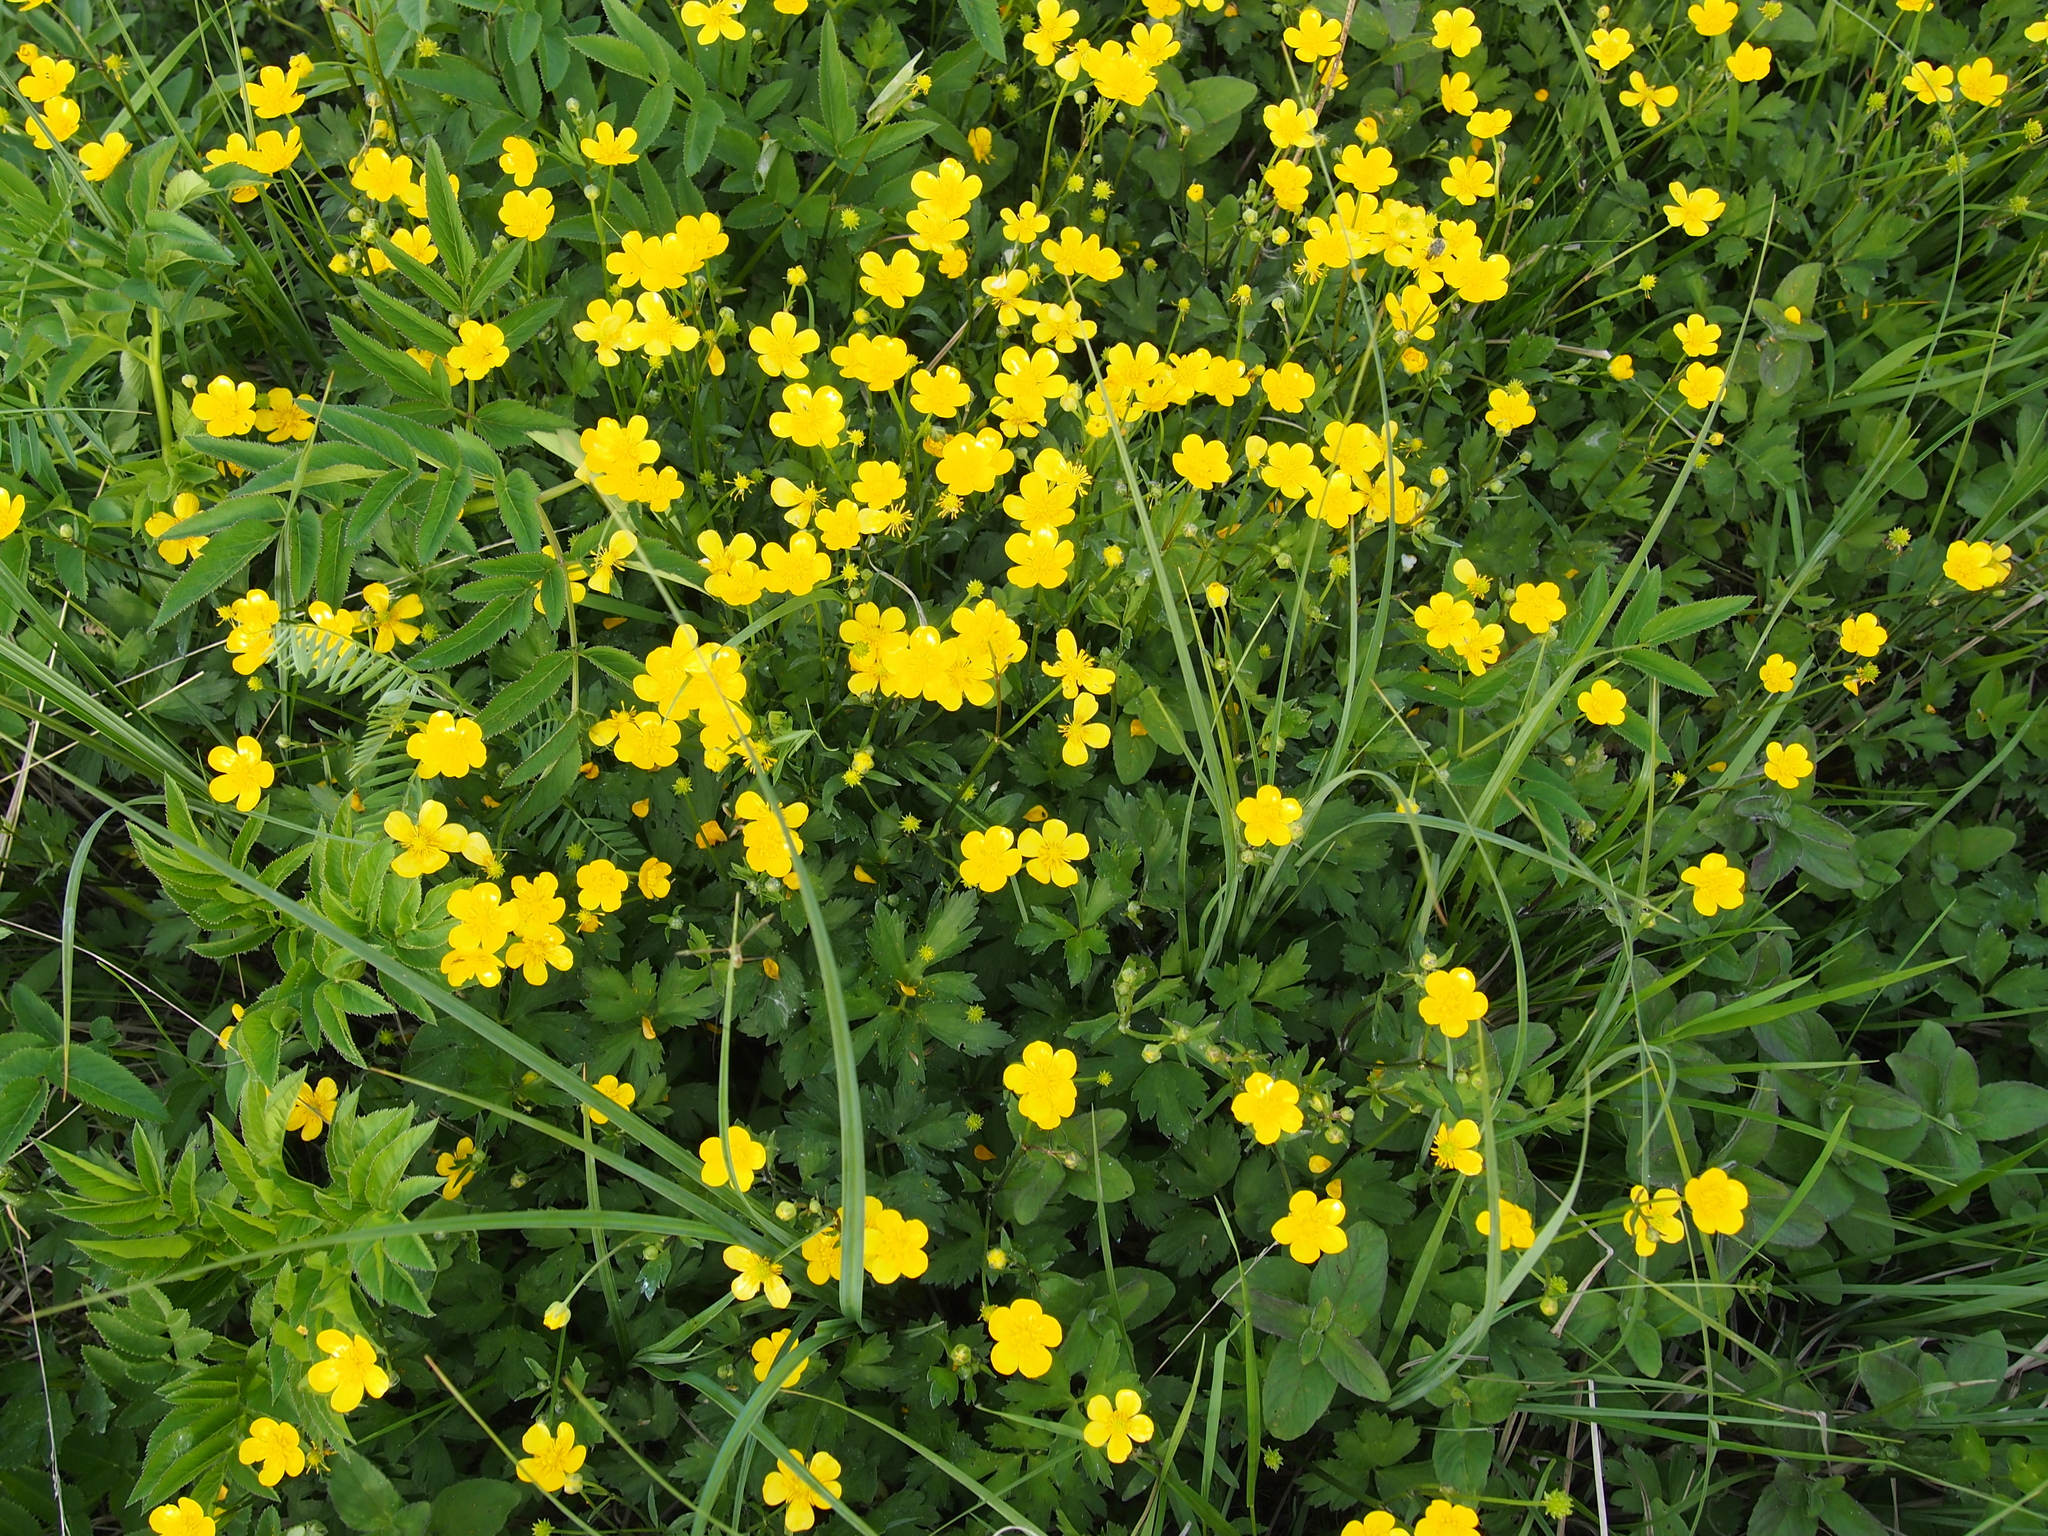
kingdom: Plantae
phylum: Tracheophyta
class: Magnoliopsida
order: Ranunculales
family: Ranunculaceae
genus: Ranunculus
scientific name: Ranunculus repens
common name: Creeping buttercup
